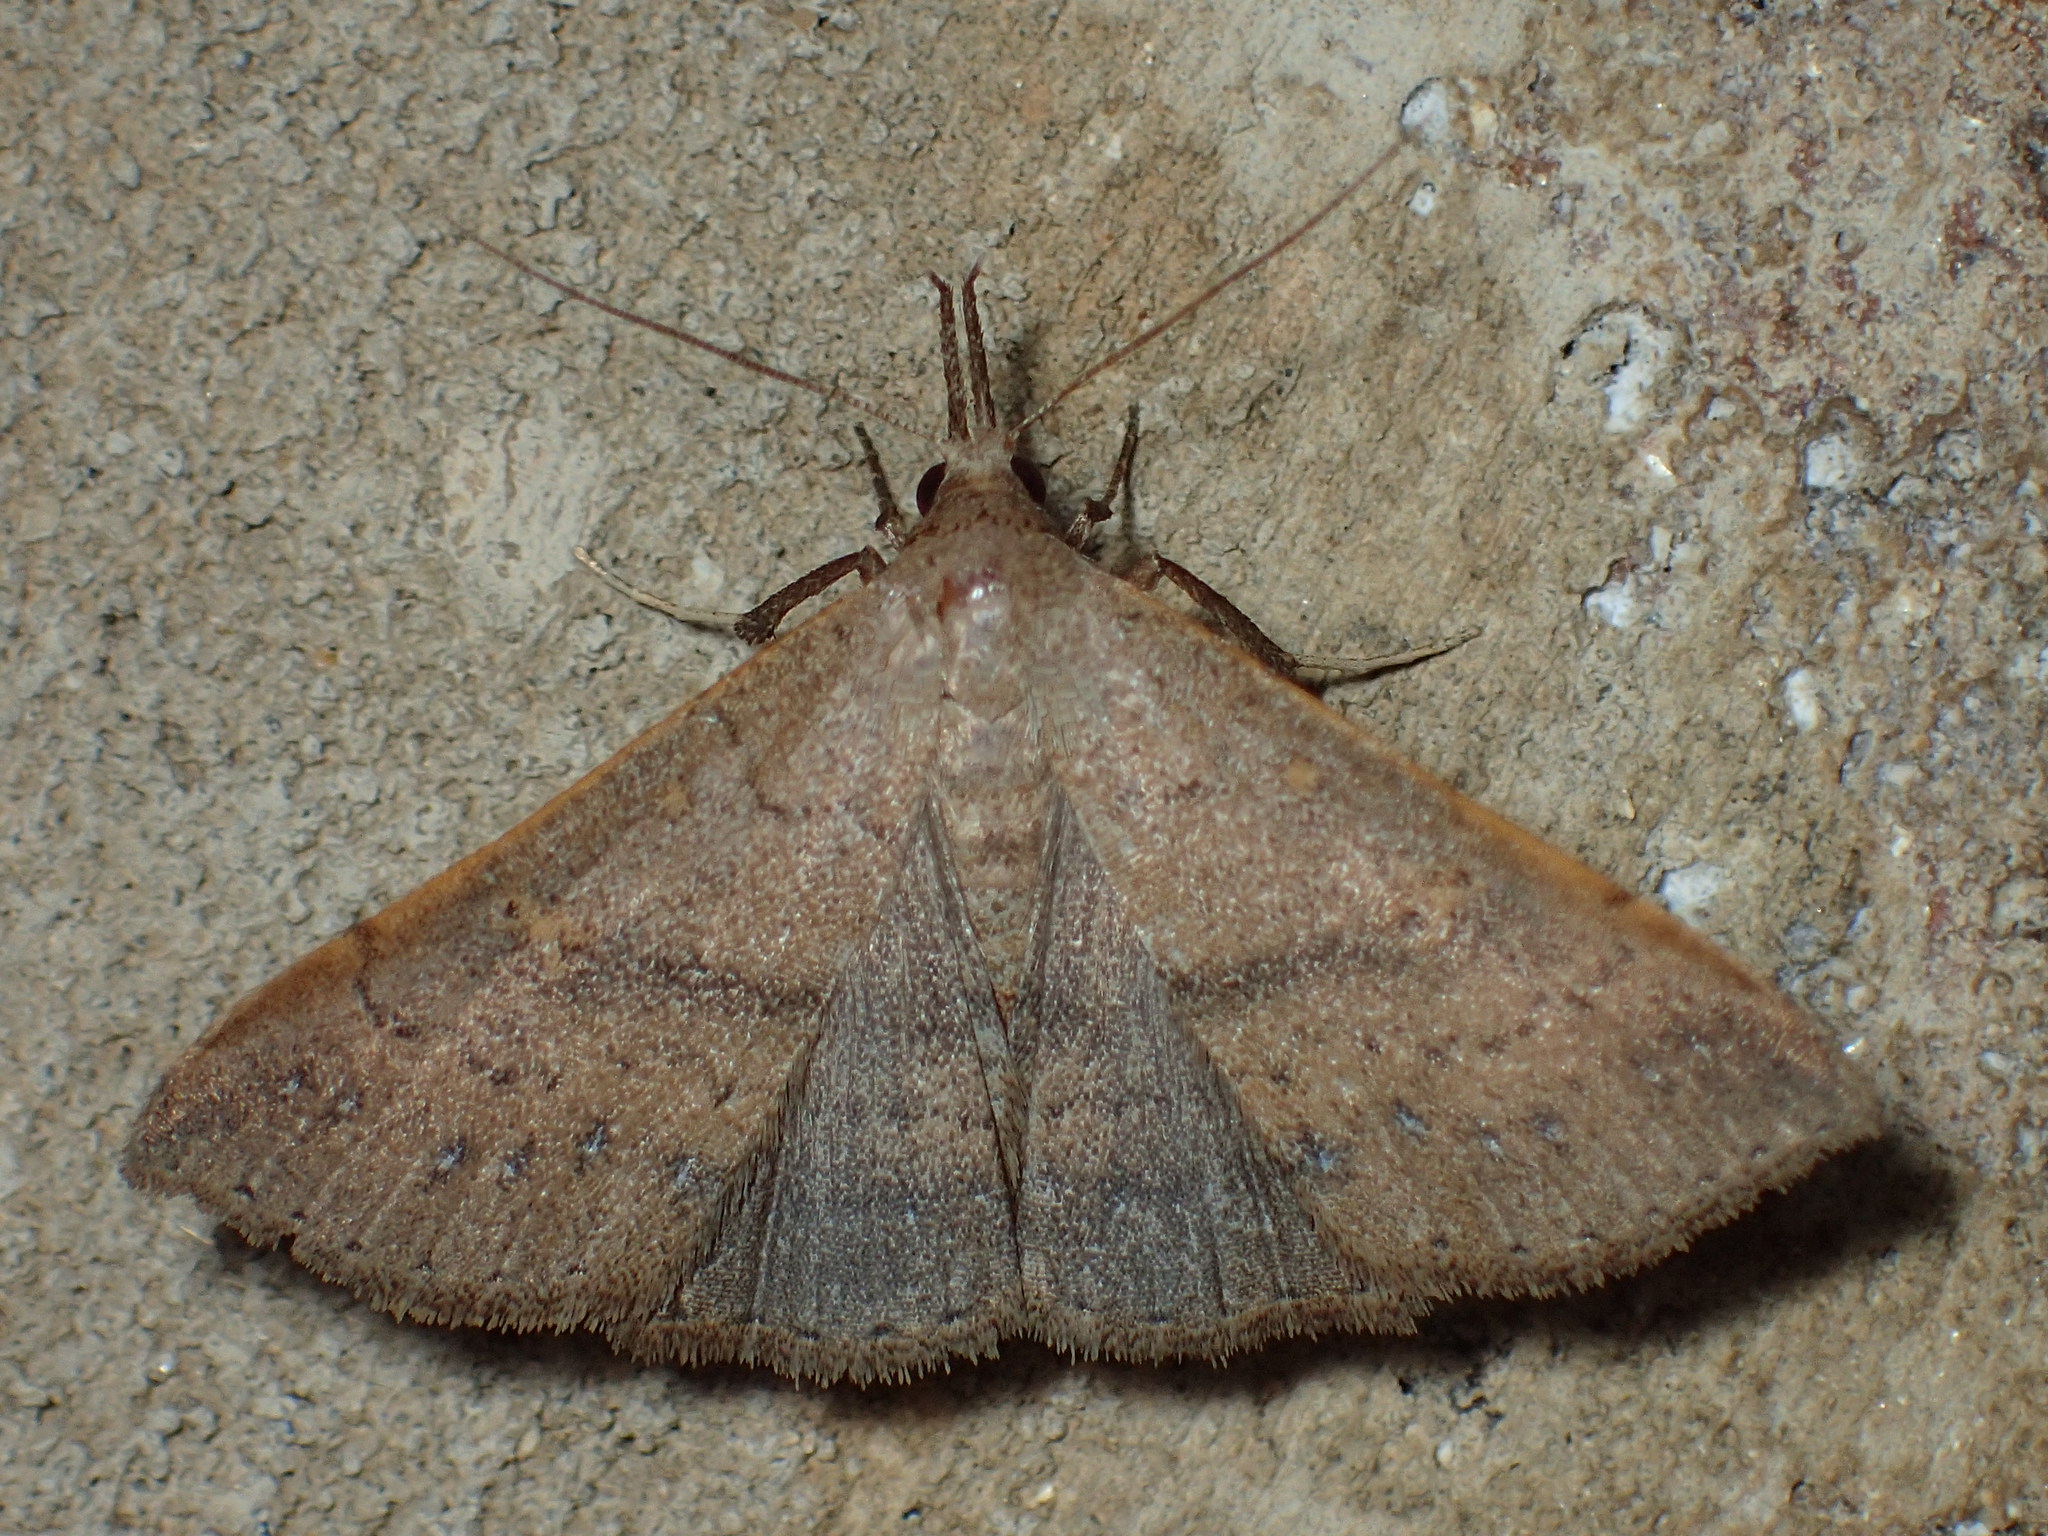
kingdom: Animalia
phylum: Arthropoda
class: Insecta
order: Lepidoptera
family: Erebidae
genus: Renia
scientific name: Renia sobrialis
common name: Sober renia moth
